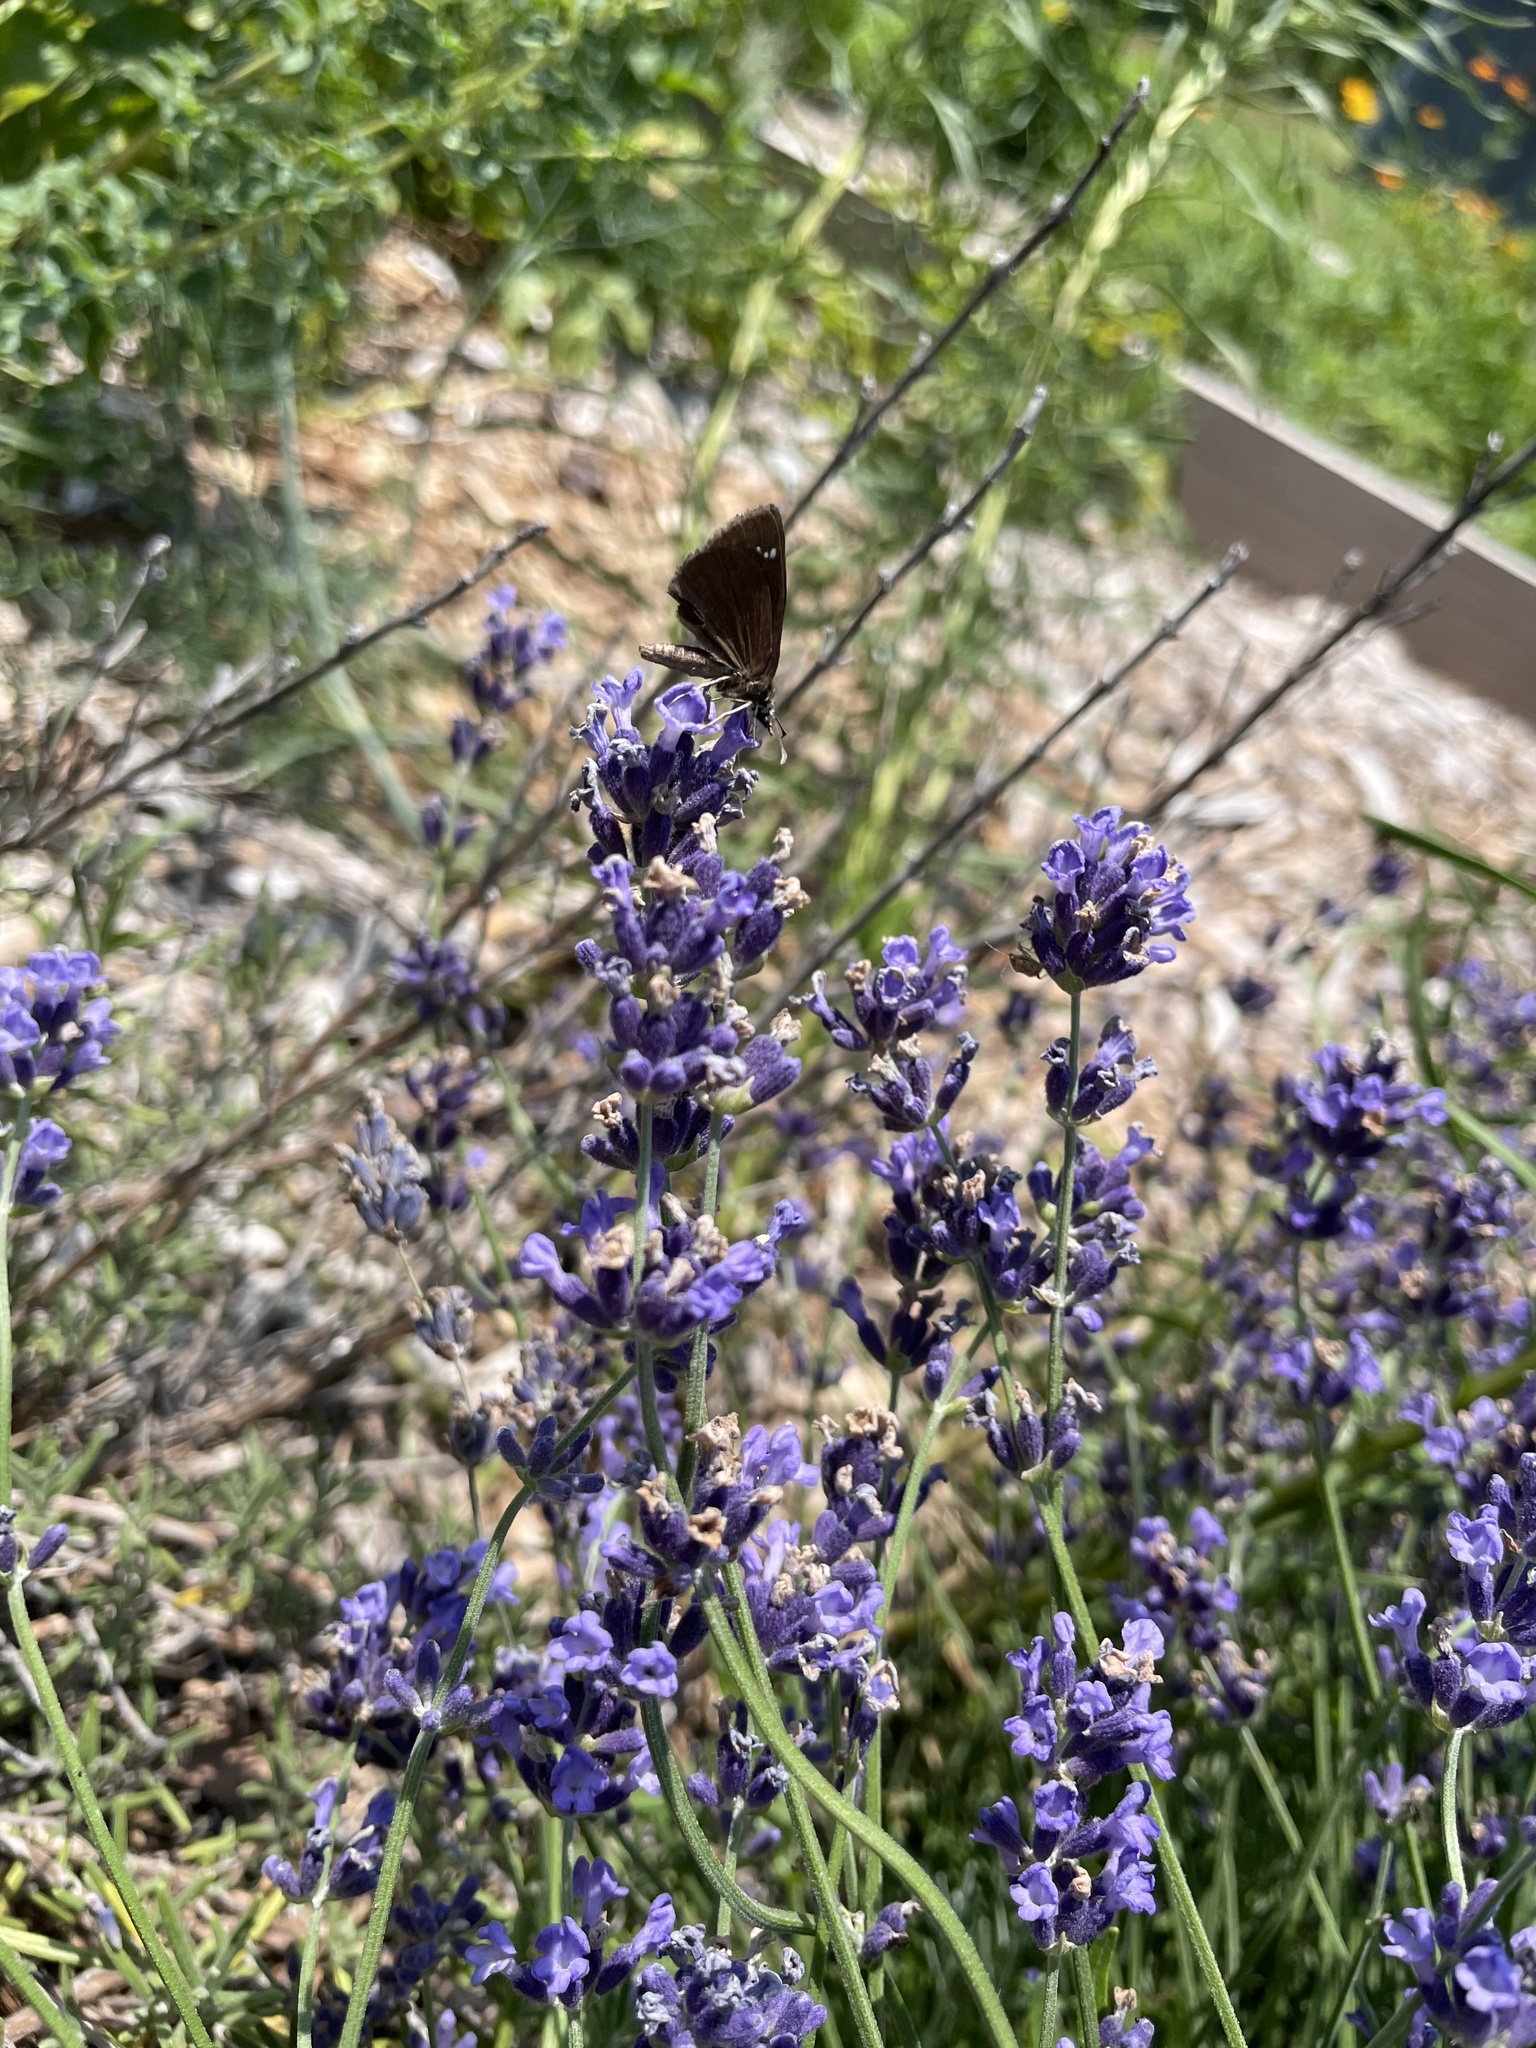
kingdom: Animalia
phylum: Arthropoda
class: Insecta
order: Lepidoptera
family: Hesperiidae
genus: Pholisora
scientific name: Pholisora catullus
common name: Common sootywing
